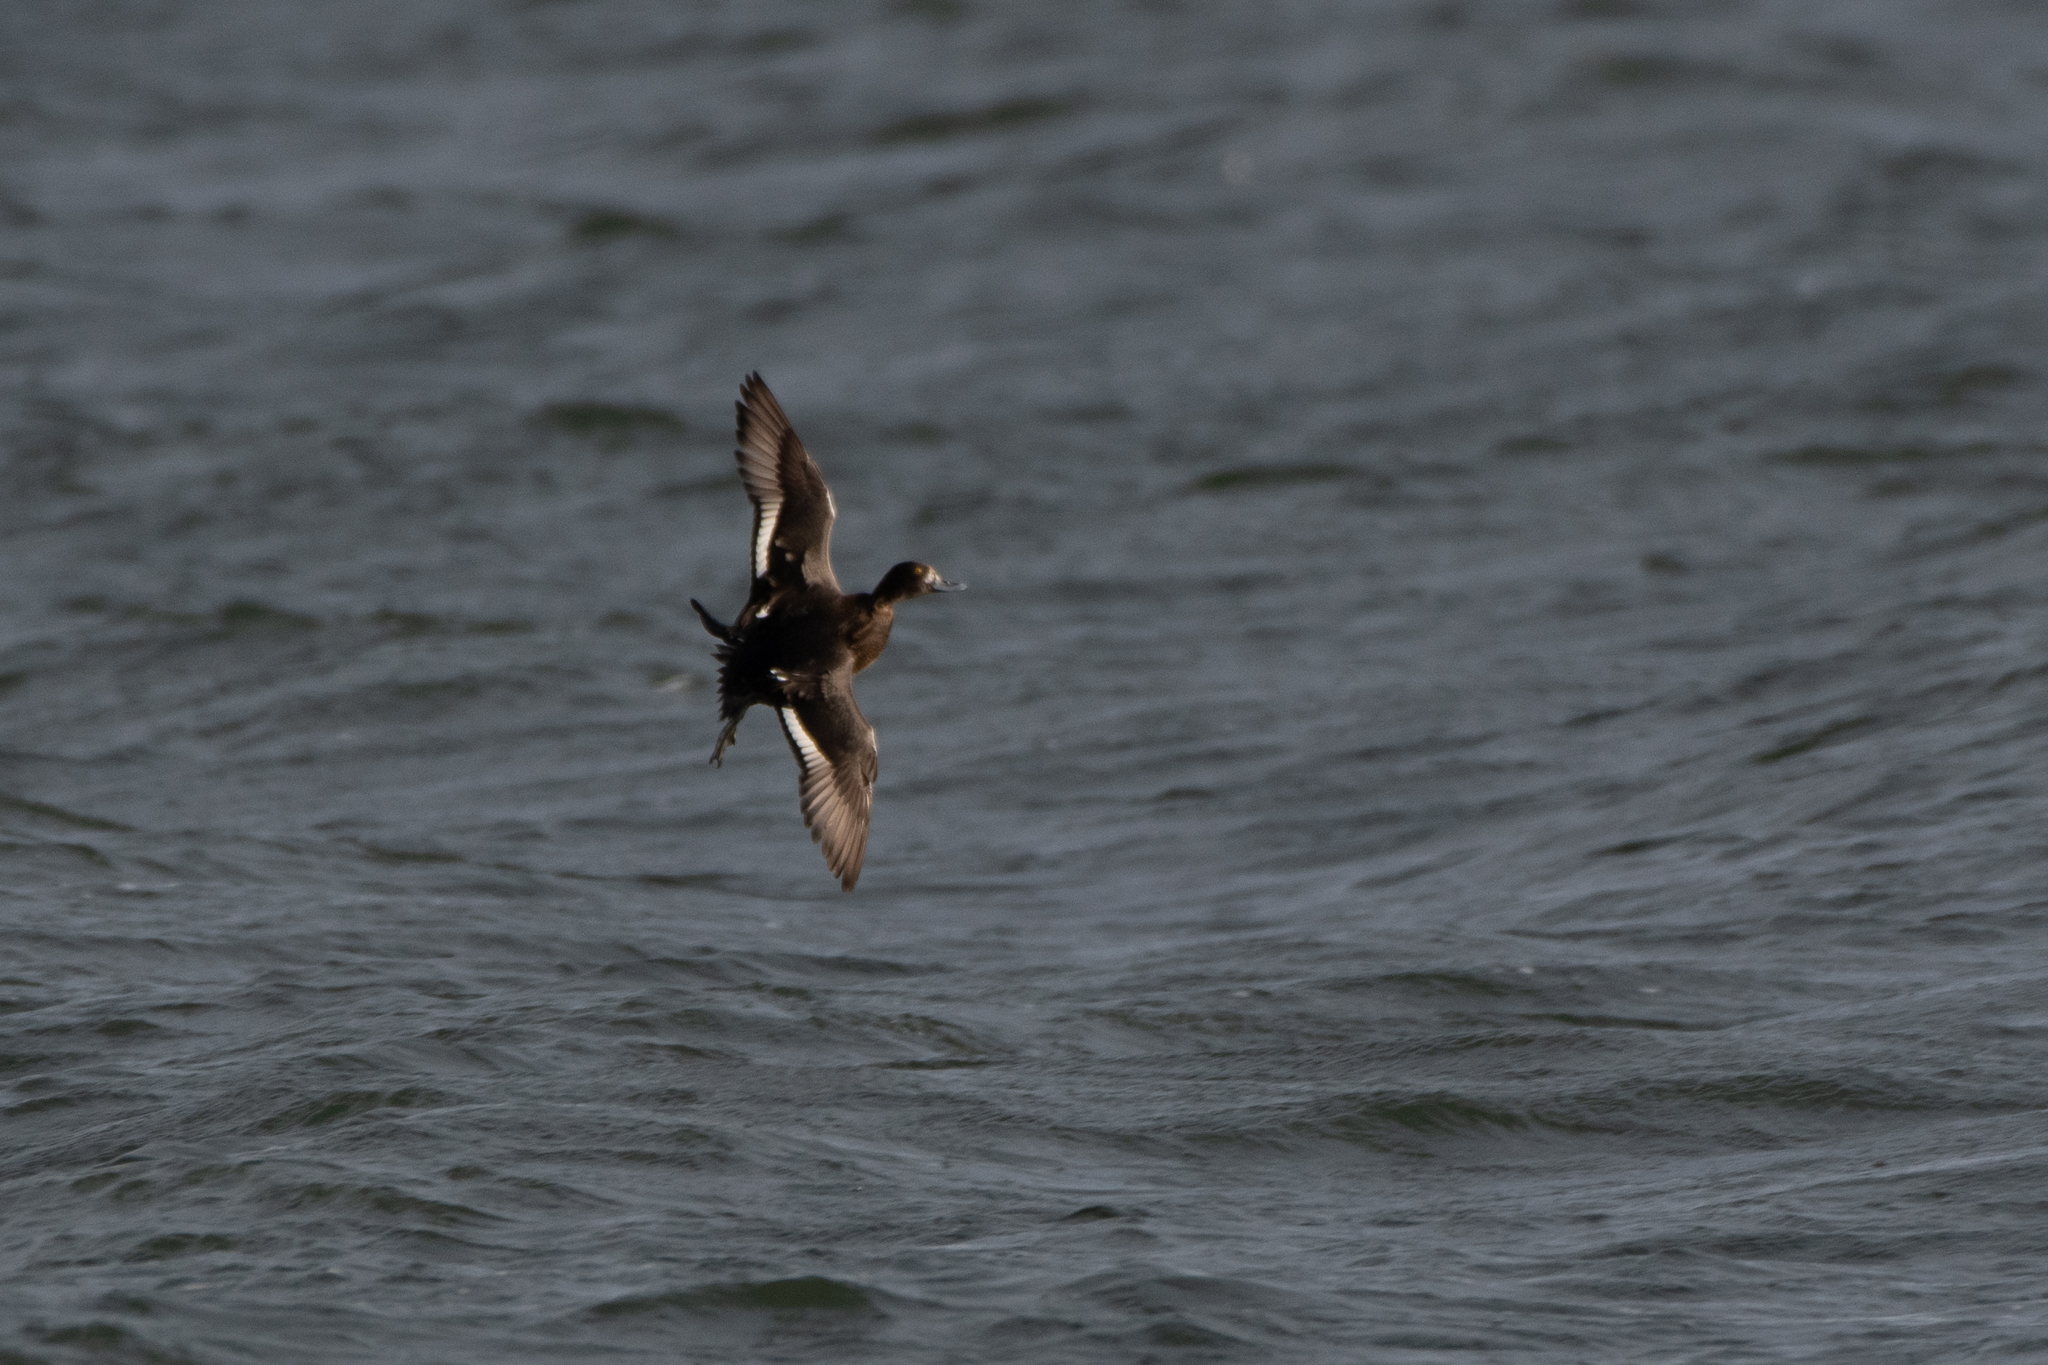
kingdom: Animalia
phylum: Chordata
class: Aves
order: Anseriformes
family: Anatidae
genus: Aythya
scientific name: Aythya affinis
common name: Lesser scaup
